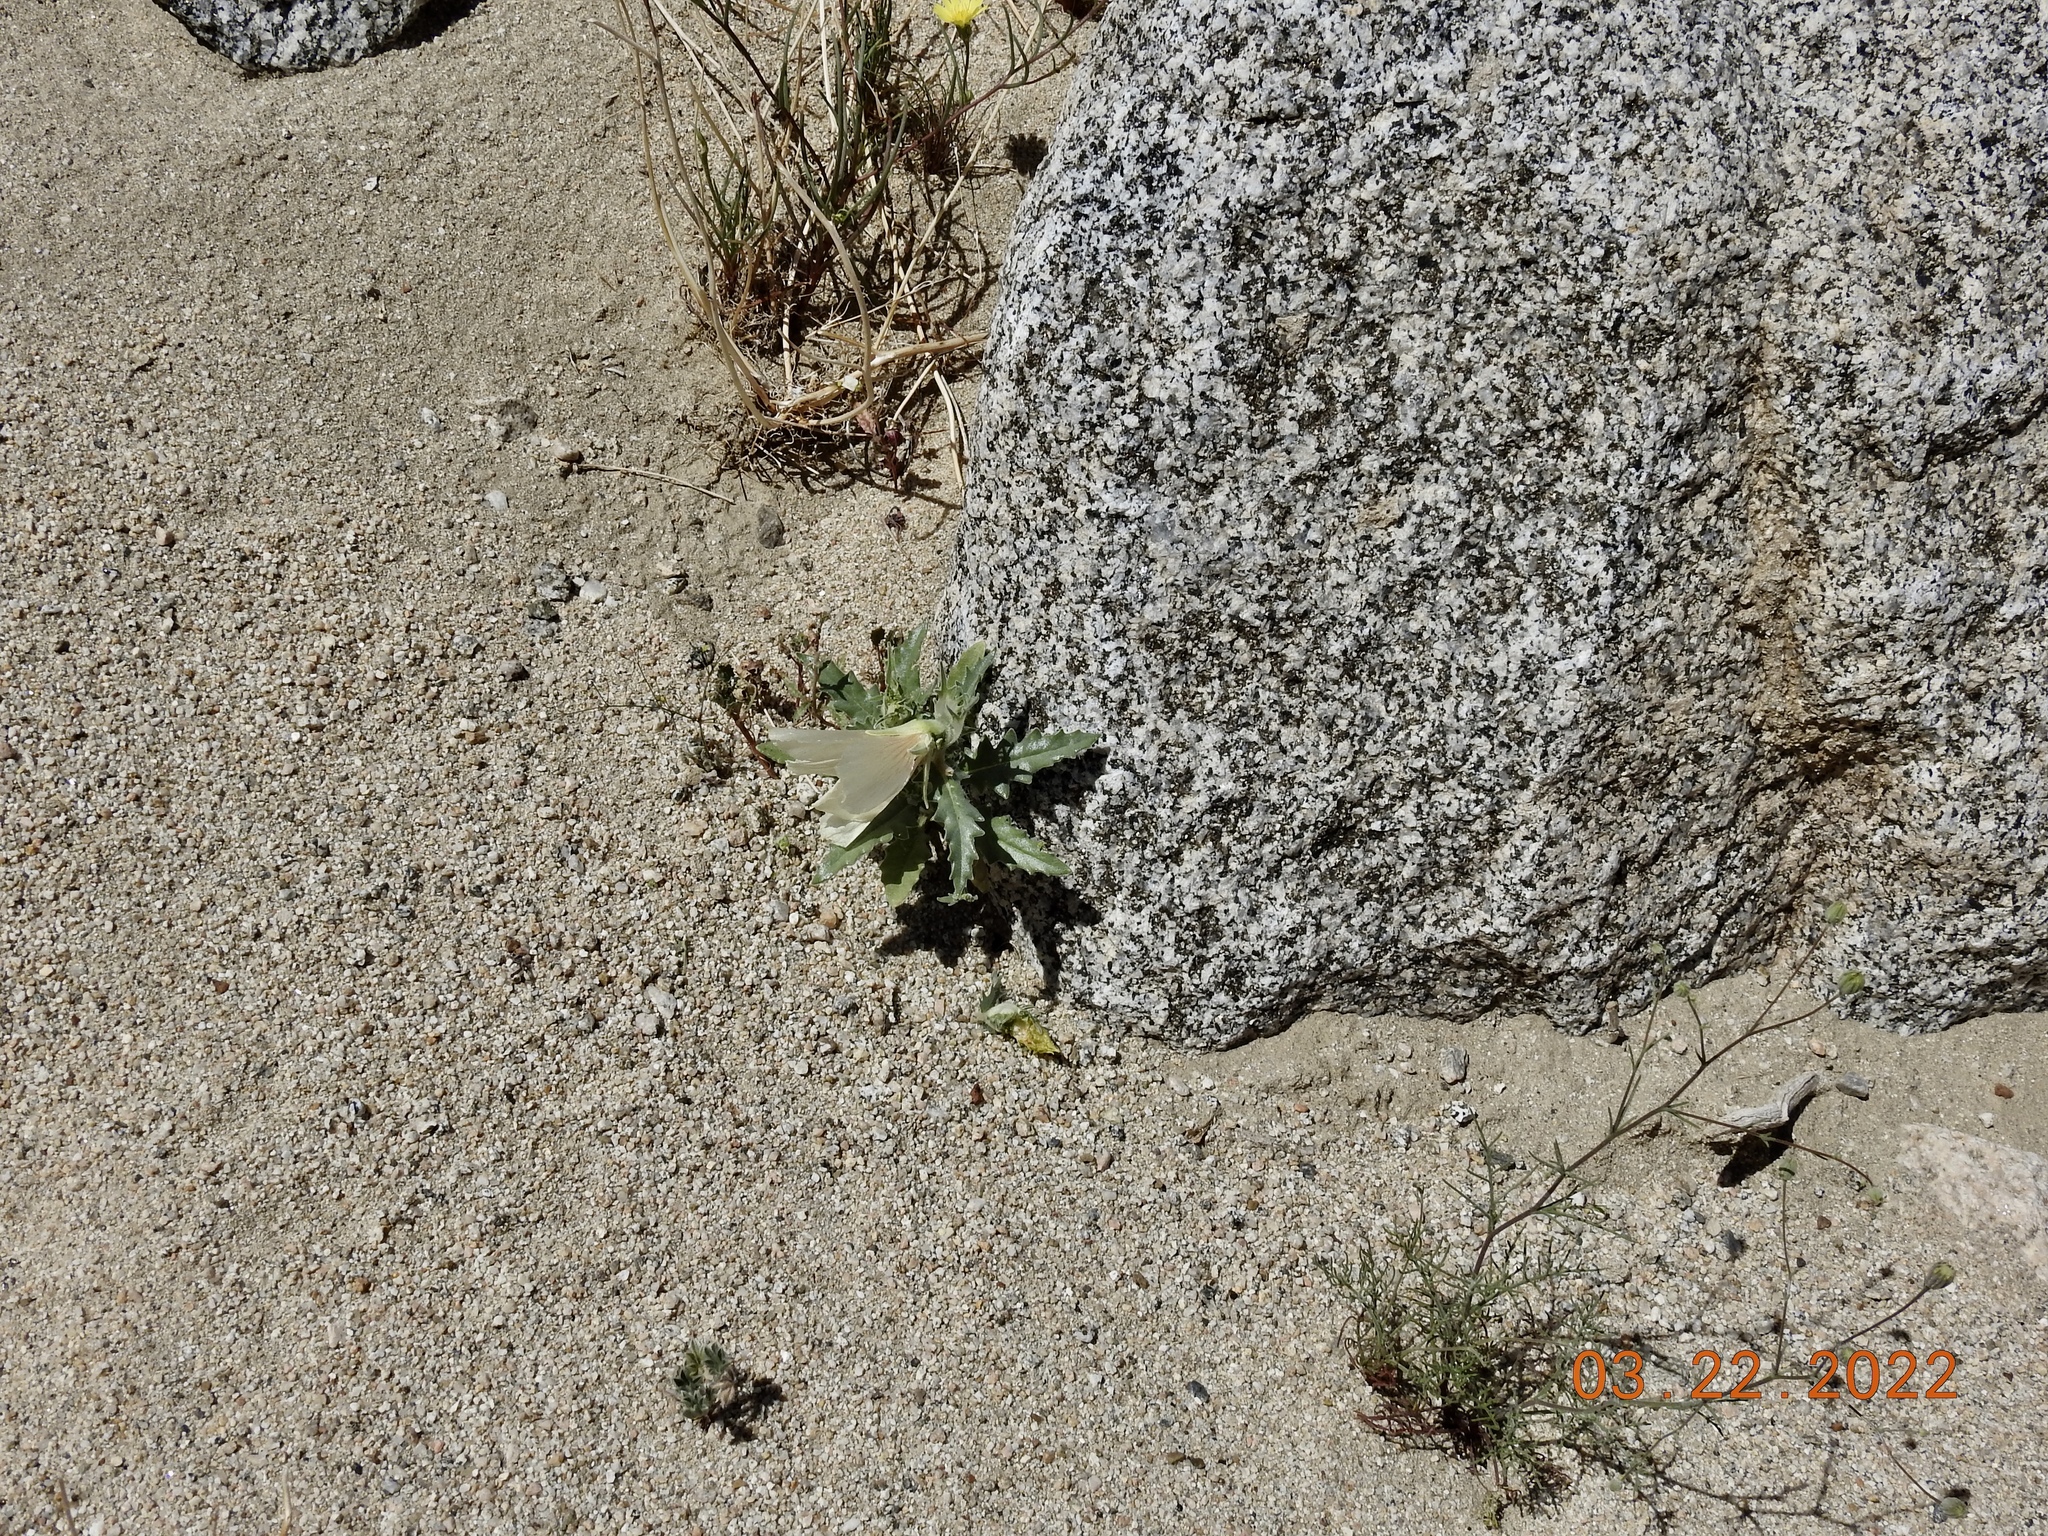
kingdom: Plantae
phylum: Tracheophyta
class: Magnoliopsida
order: Cornales
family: Loasaceae
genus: Mentzelia
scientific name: Mentzelia involucrata
